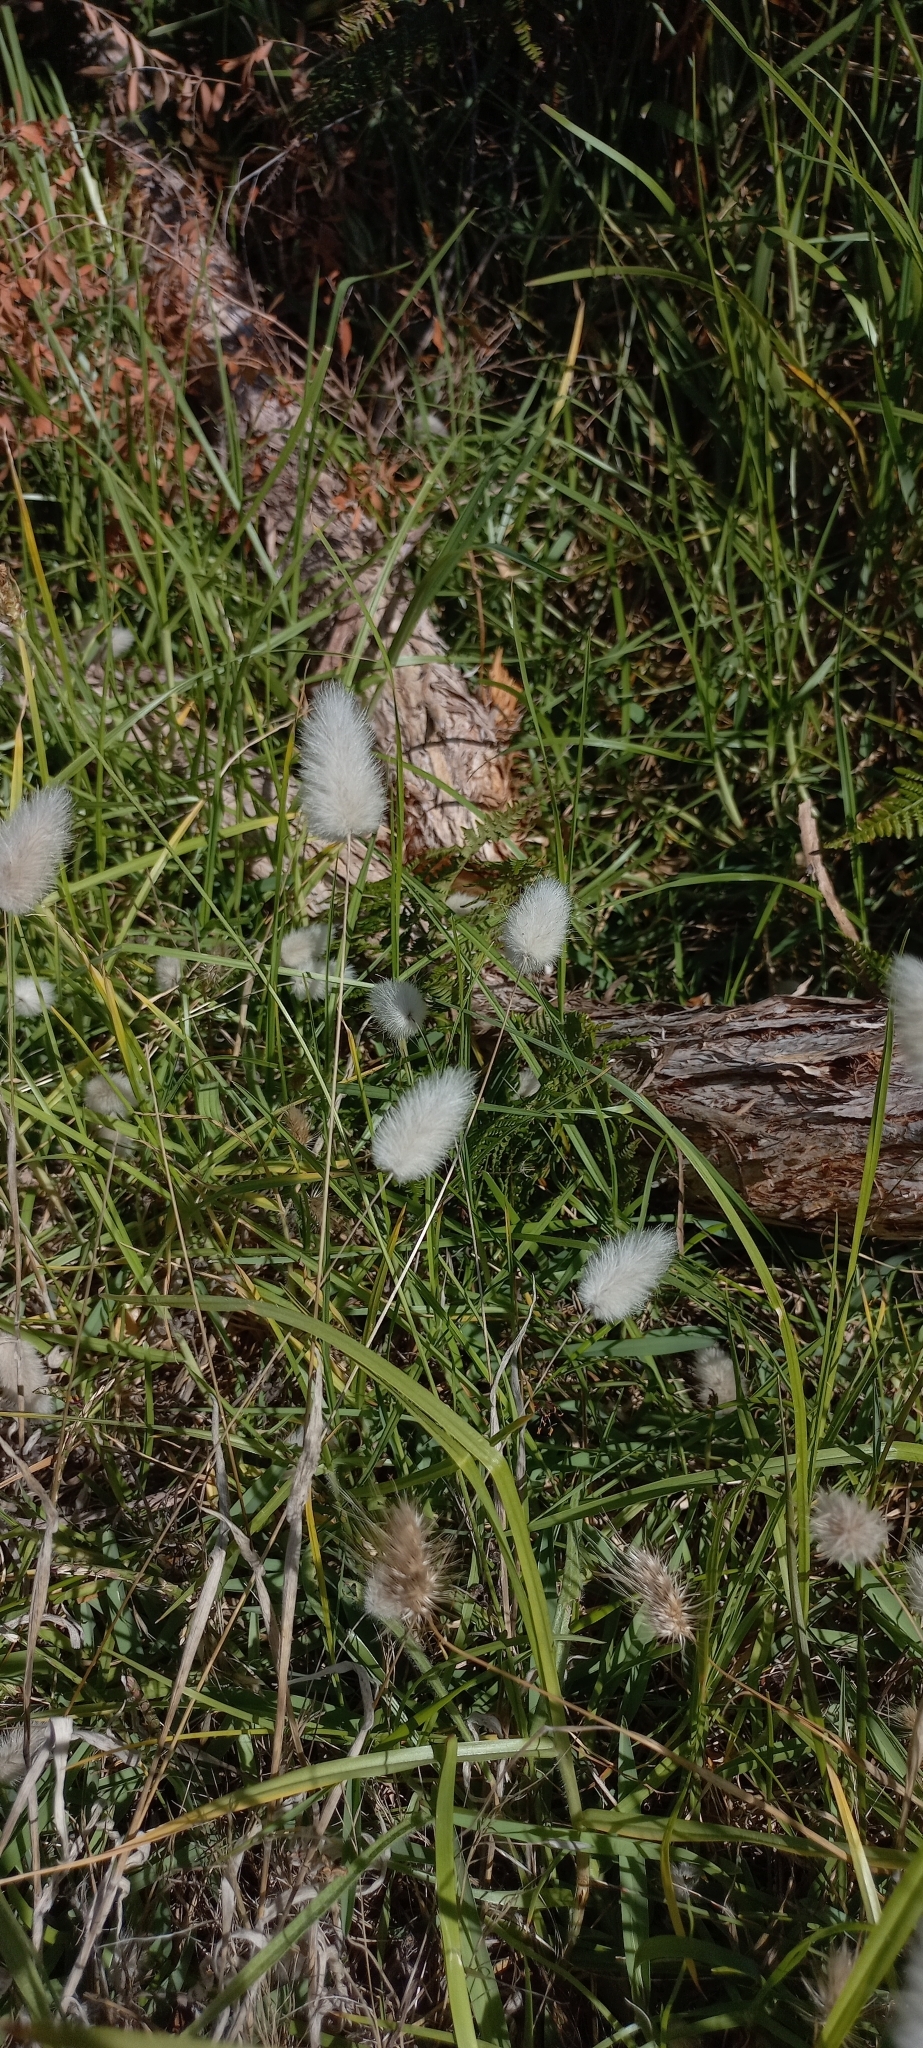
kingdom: Plantae
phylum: Tracheophyta
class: Liliopsida
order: Poales
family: Poaceae
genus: Lagurus
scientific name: Lagurus ovatus
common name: Hare's-tail
